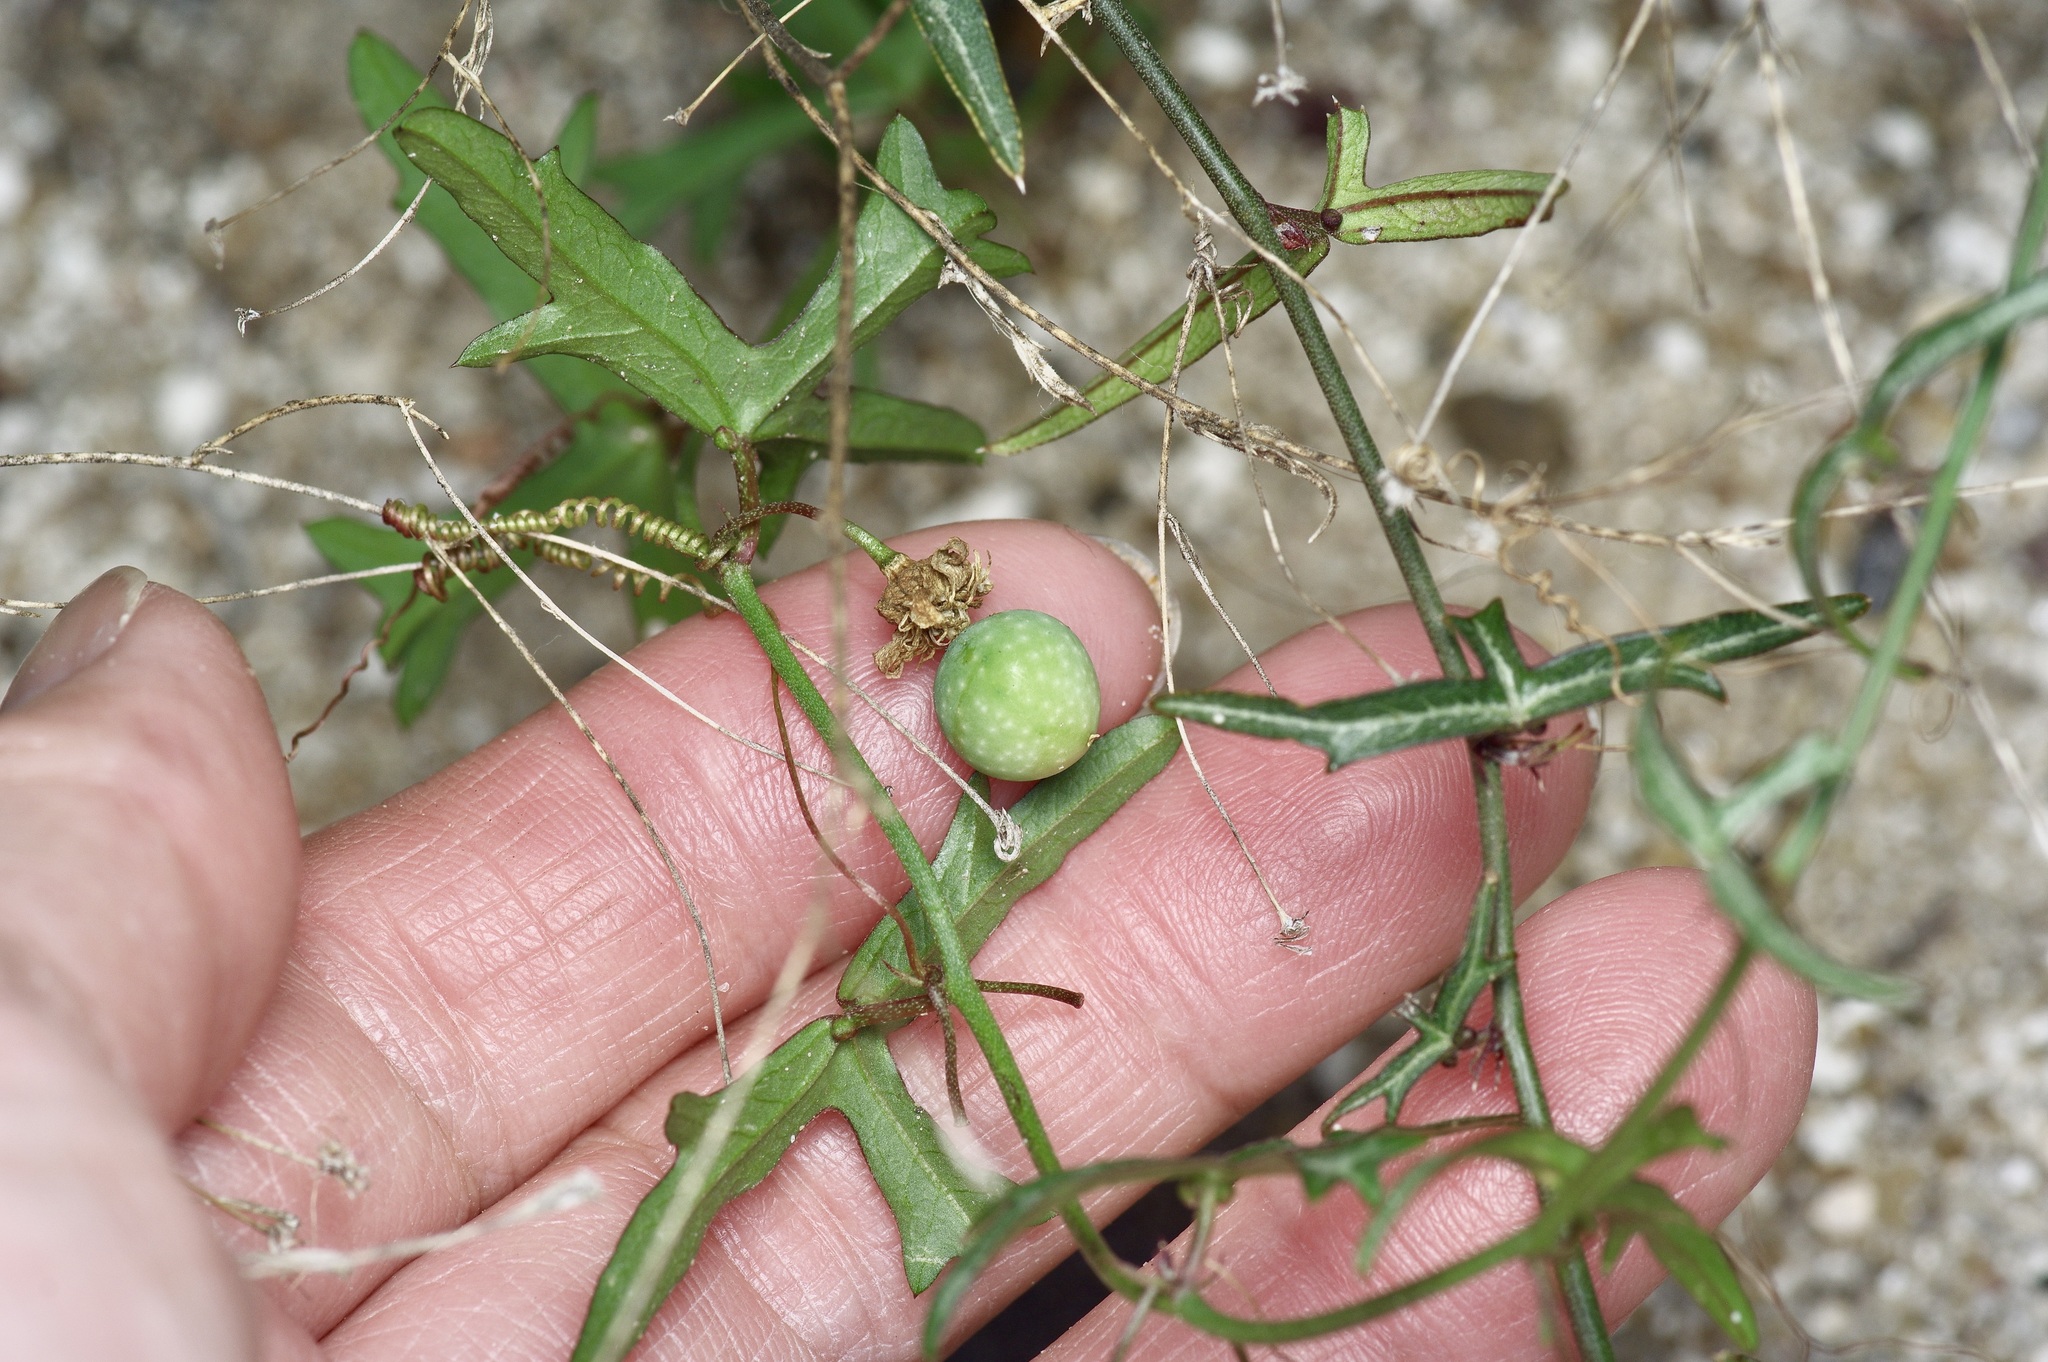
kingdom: Plantae
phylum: Tracheophyta
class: Magnoliopsida
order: Malpighiales
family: Passifloraceae
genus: Passiflora
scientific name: Passiflora tenuiloba
